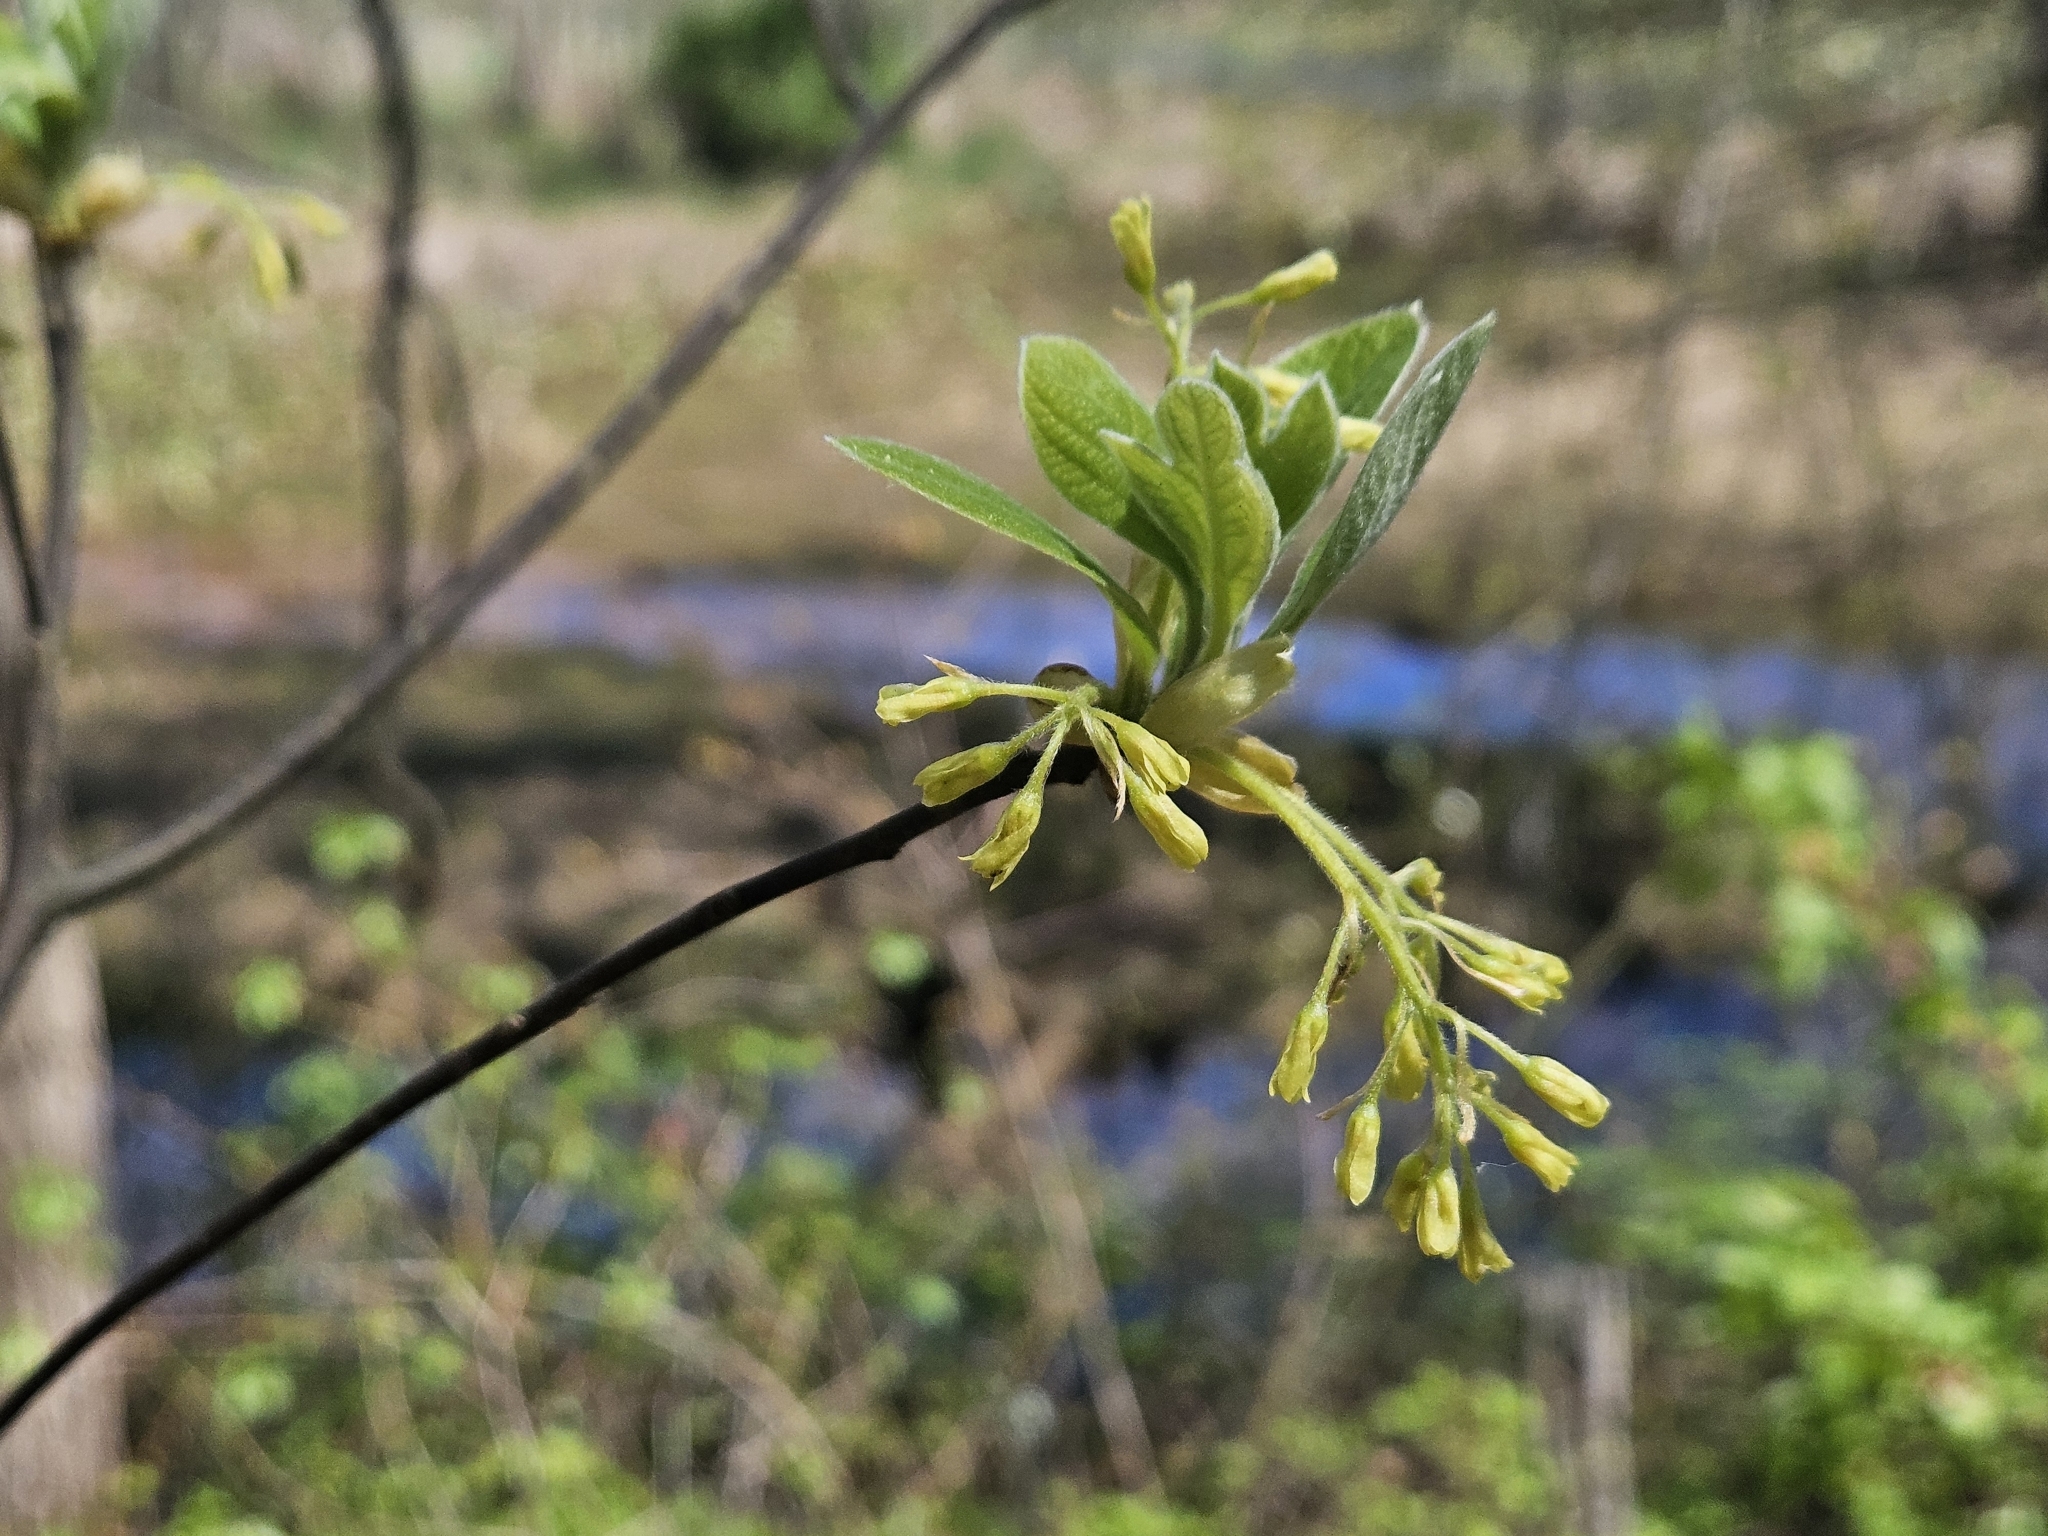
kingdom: Plantae
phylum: Tracheophyta
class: Magnoliopsida
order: Laurales
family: Lauraceae
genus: Sassafras
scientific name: Sassafras albidum
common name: Sassafras
